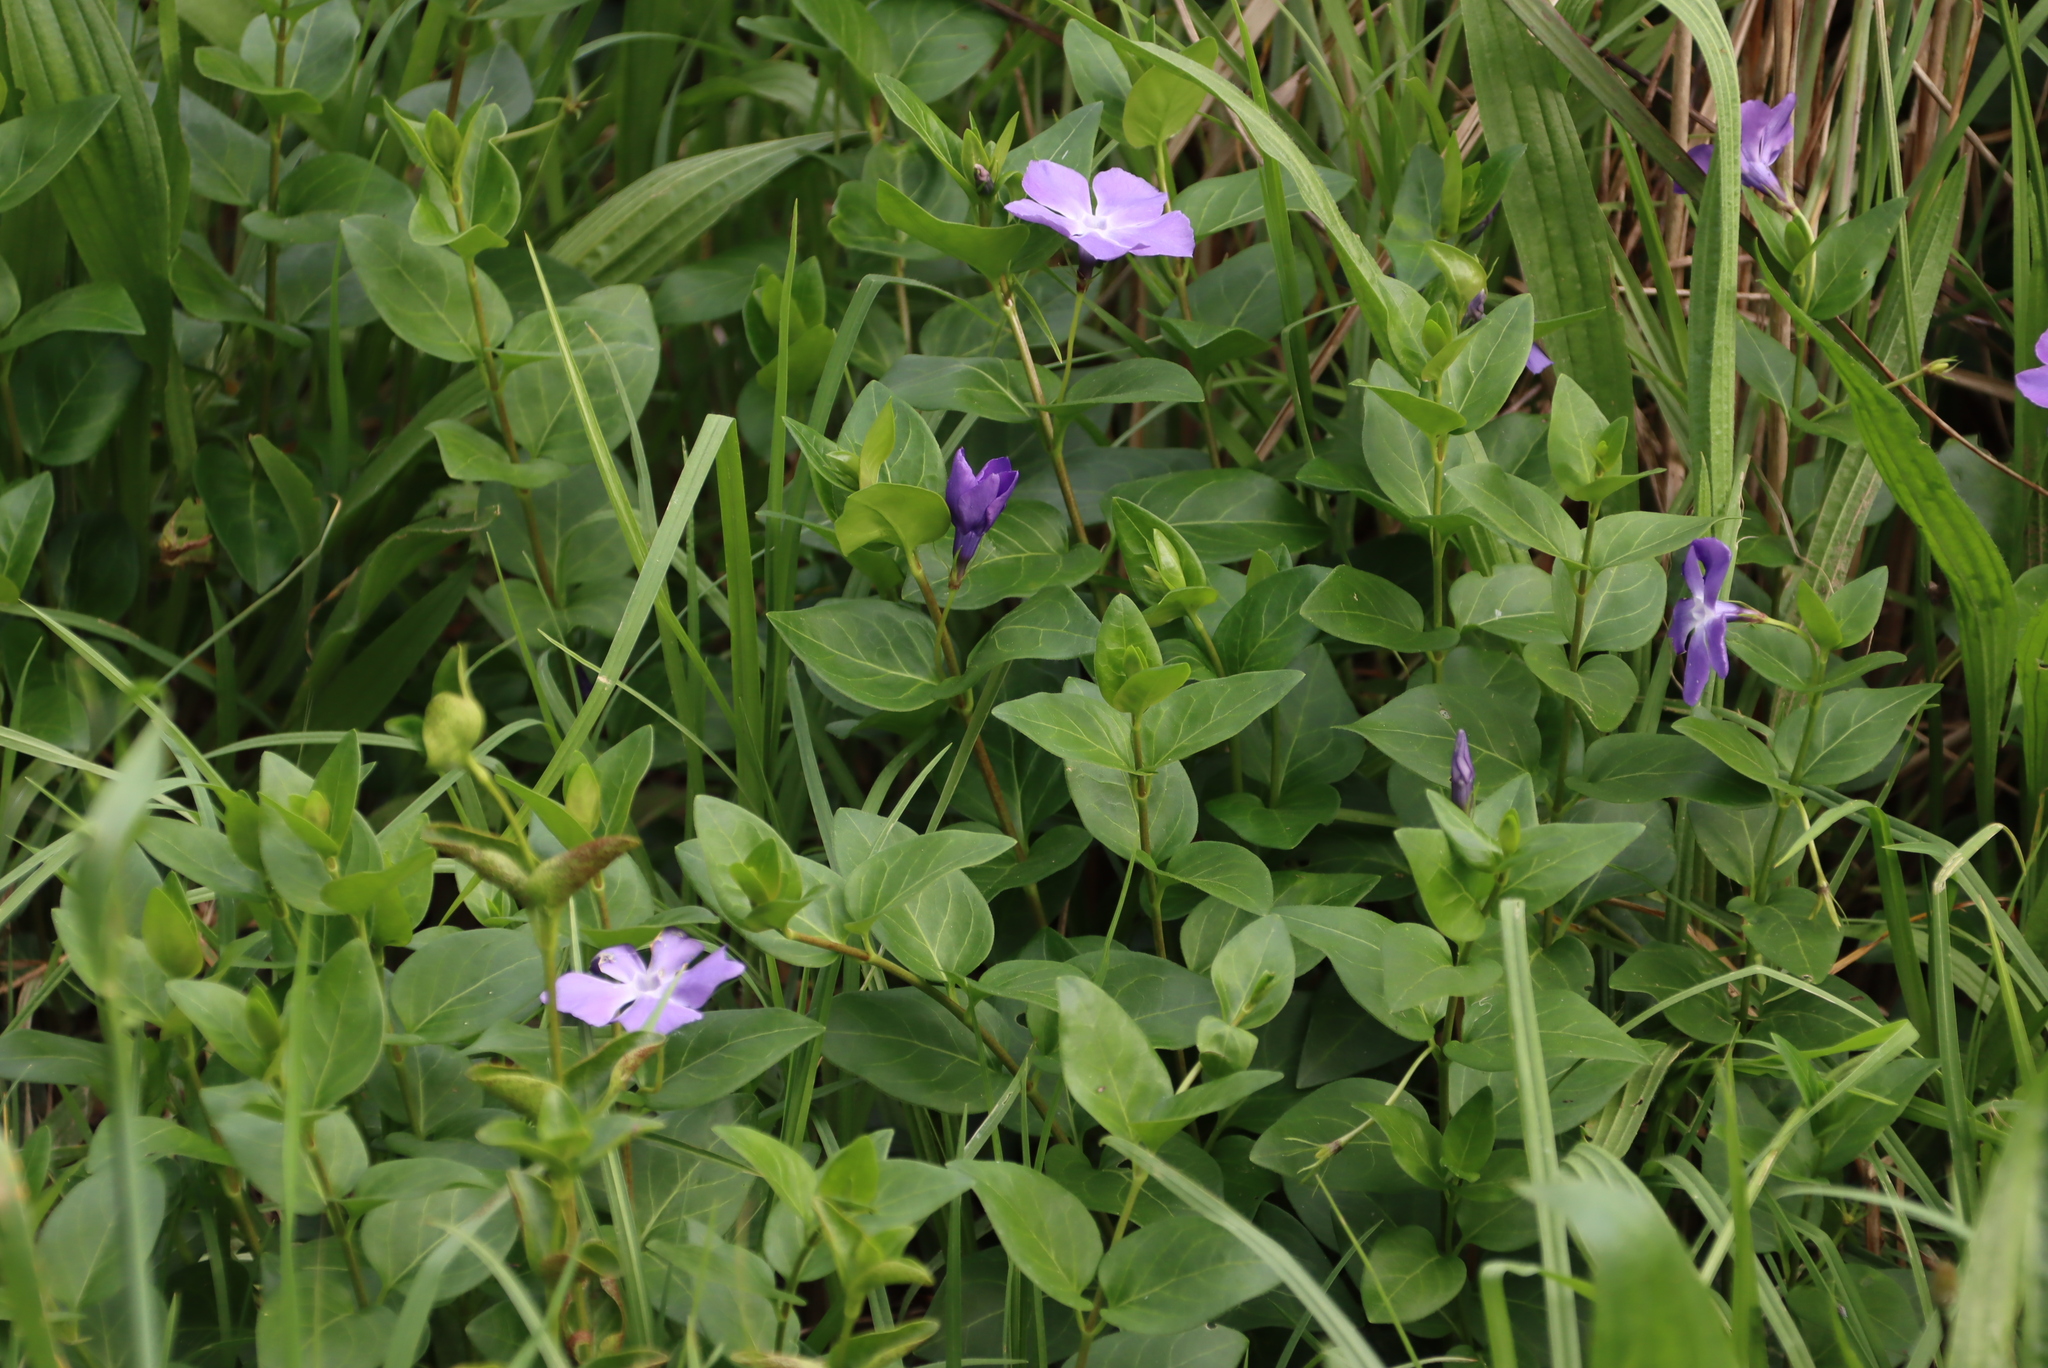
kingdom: Plantae
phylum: Tracheophyta
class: Magnoliopsida
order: Gentianales
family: Apocynaceae
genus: Vinca
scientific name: Vinca major
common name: Greater periwinkle
